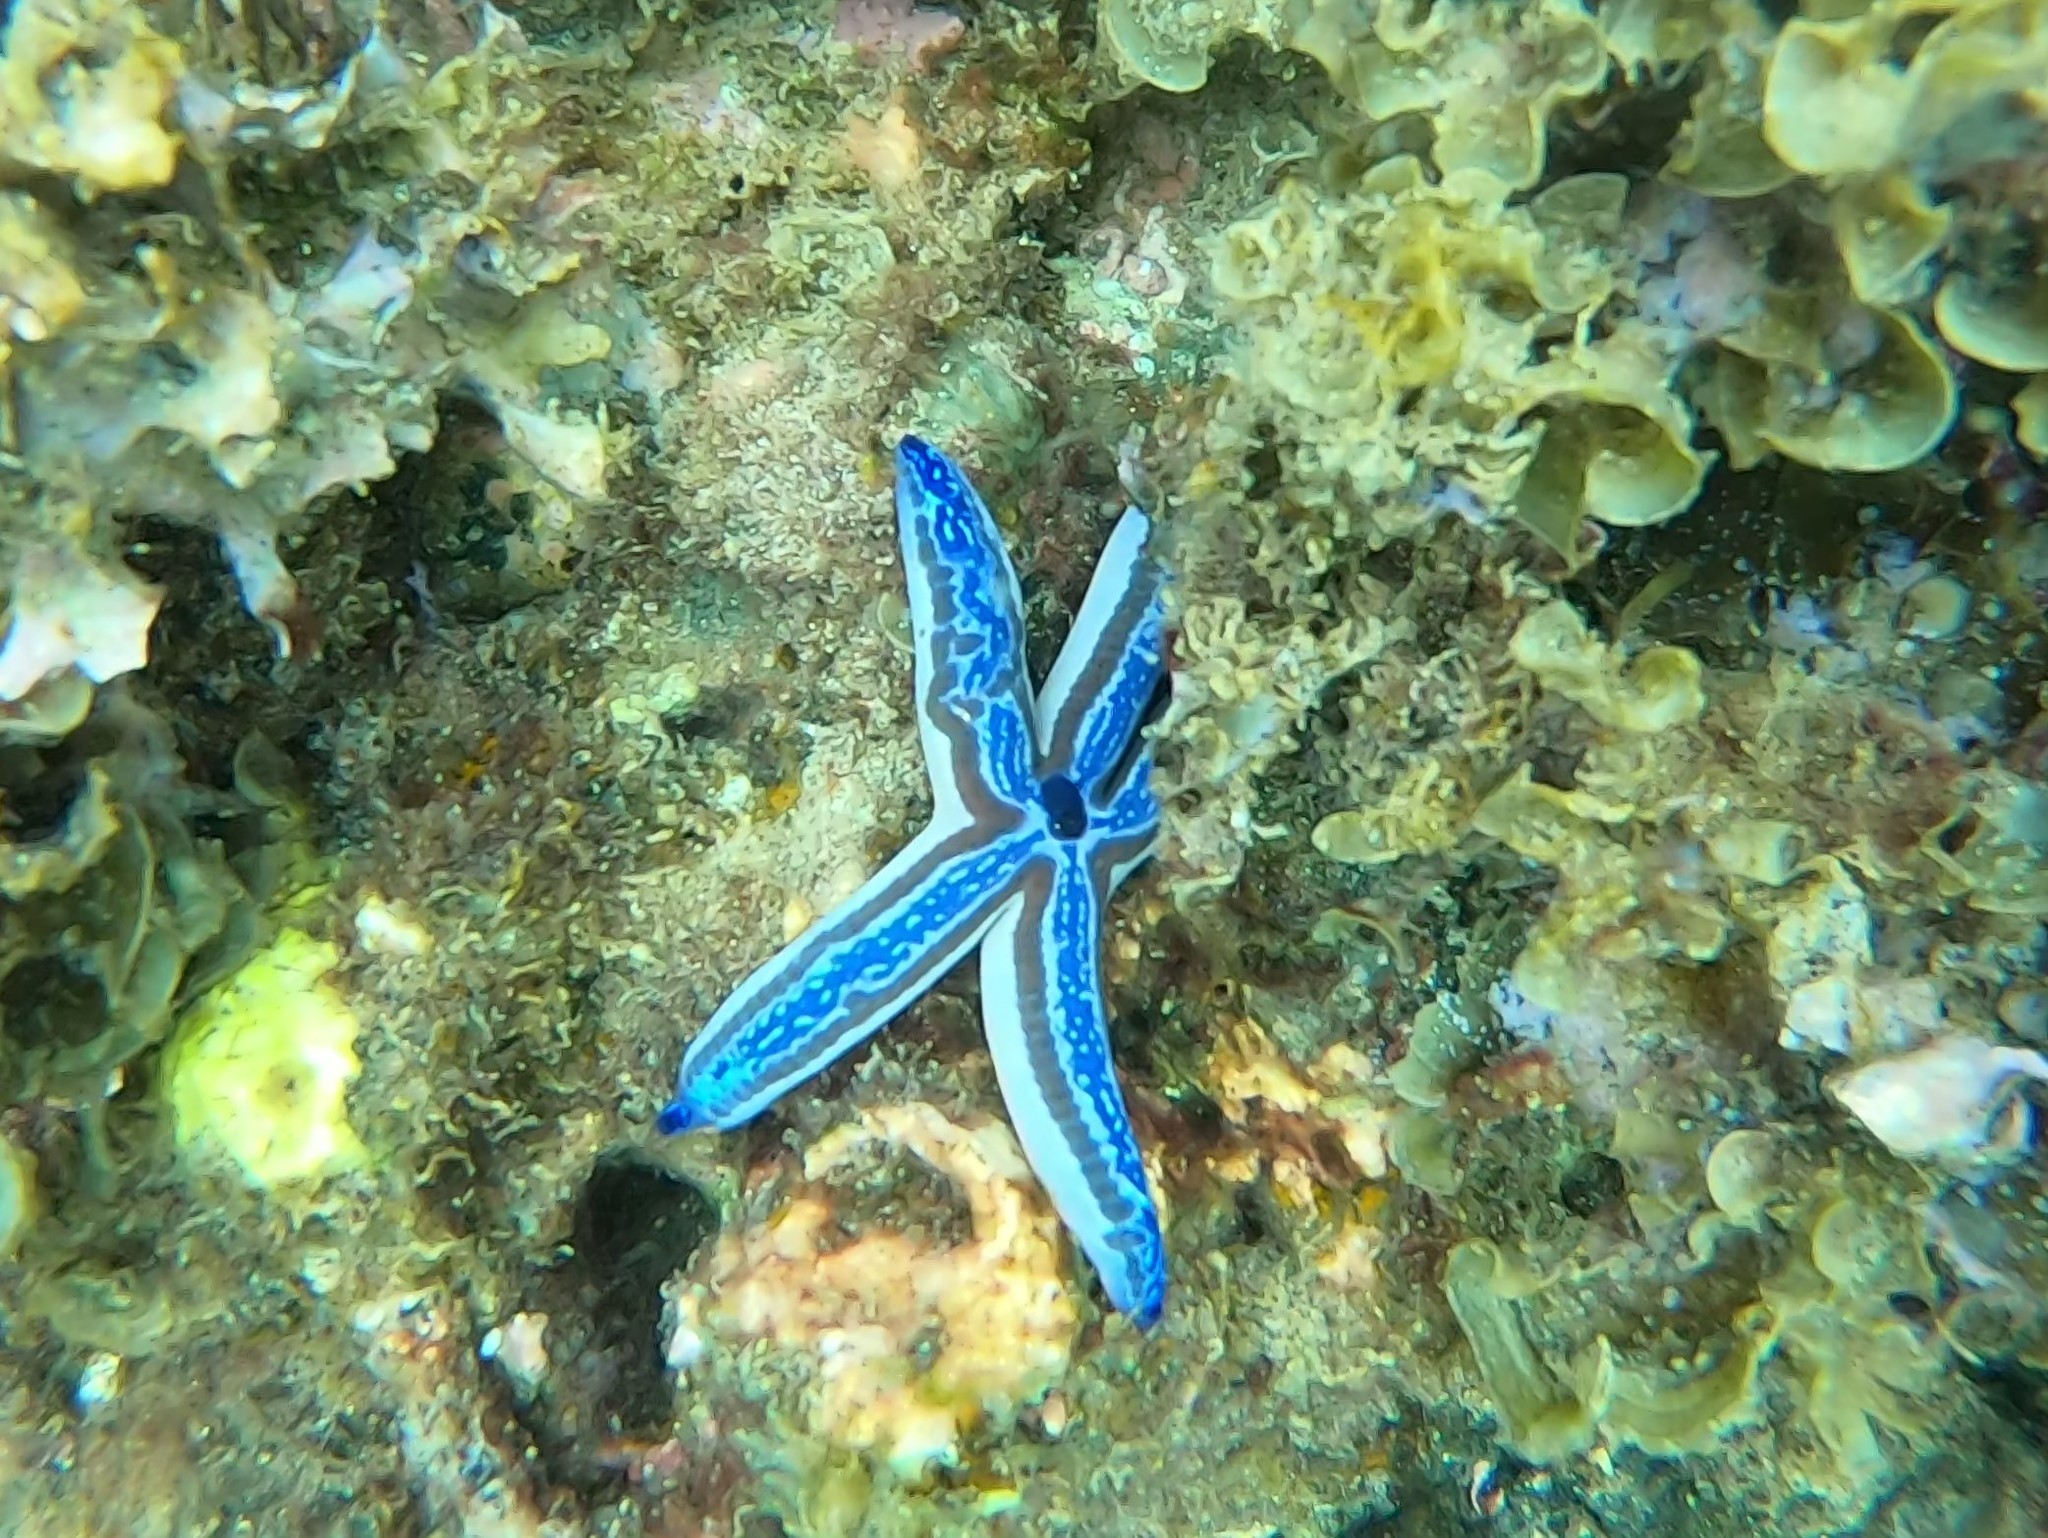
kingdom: Animalia
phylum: Echinodermata
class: Asteroidea
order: Valvatida
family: Ophidiasteridae
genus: Phataria
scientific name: Phataria unifascialis
